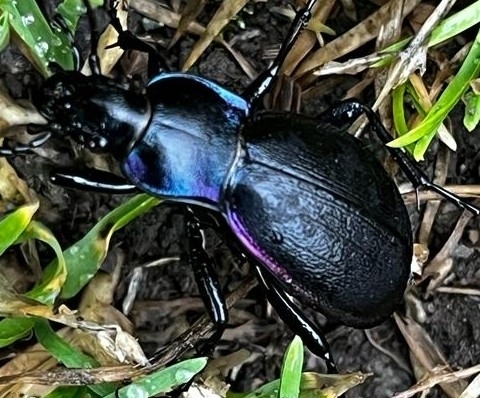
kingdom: Animalia
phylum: Arthropoda
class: Insecta
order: Coleoptera
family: Carabidae
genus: Carabus
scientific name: Carabus violaceus
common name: Violet ground beetle
